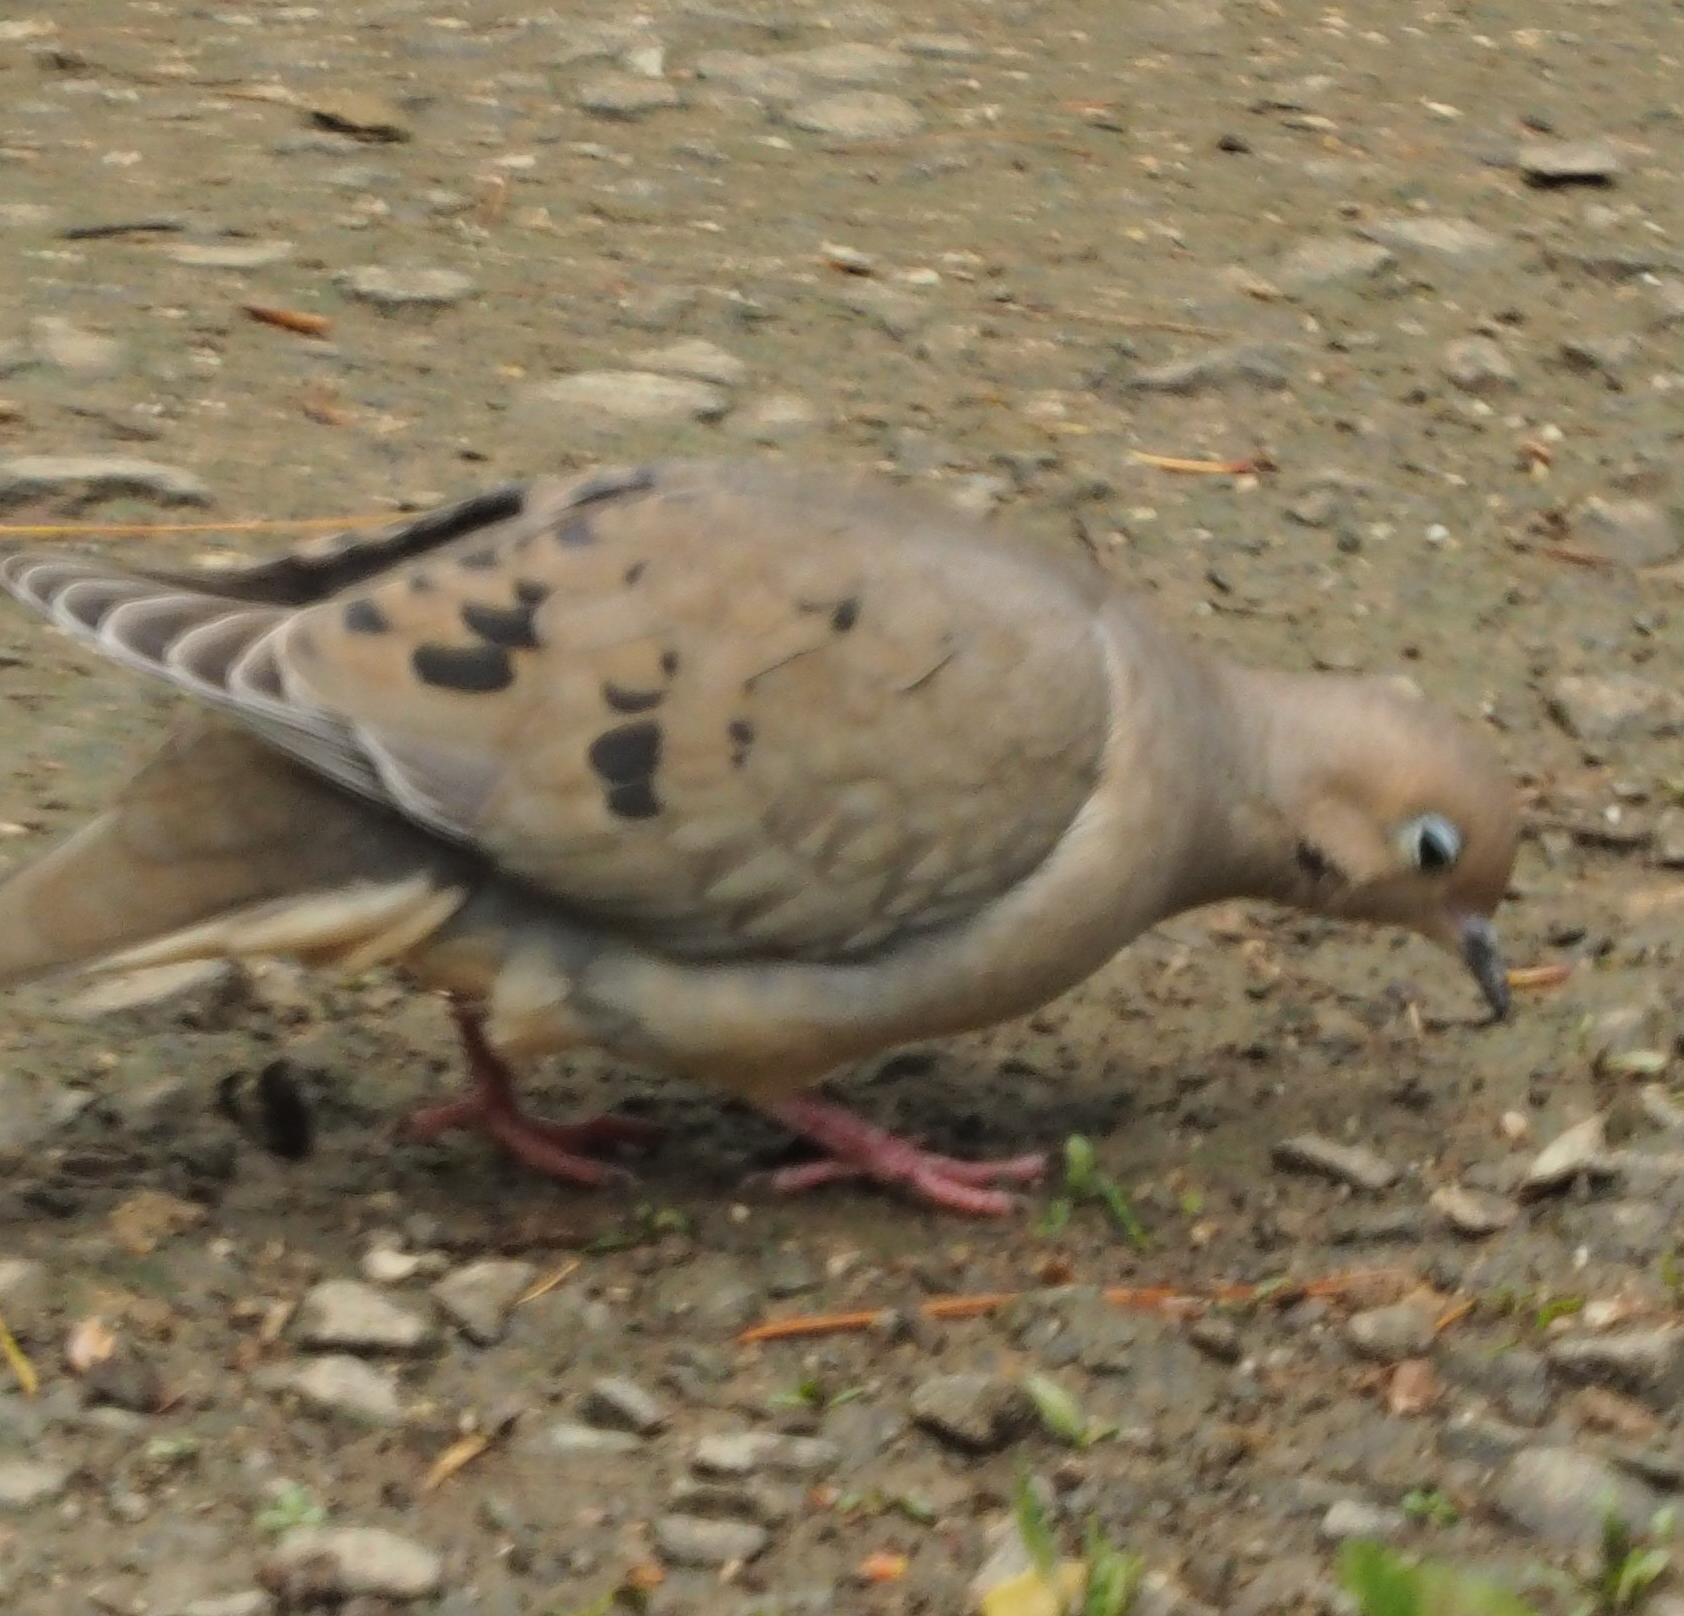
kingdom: Animalia
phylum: Chordata
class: Aves
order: Columbiformes
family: Columbidae
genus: Zenaida
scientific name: Zenaida macroura
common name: Mourning dove
